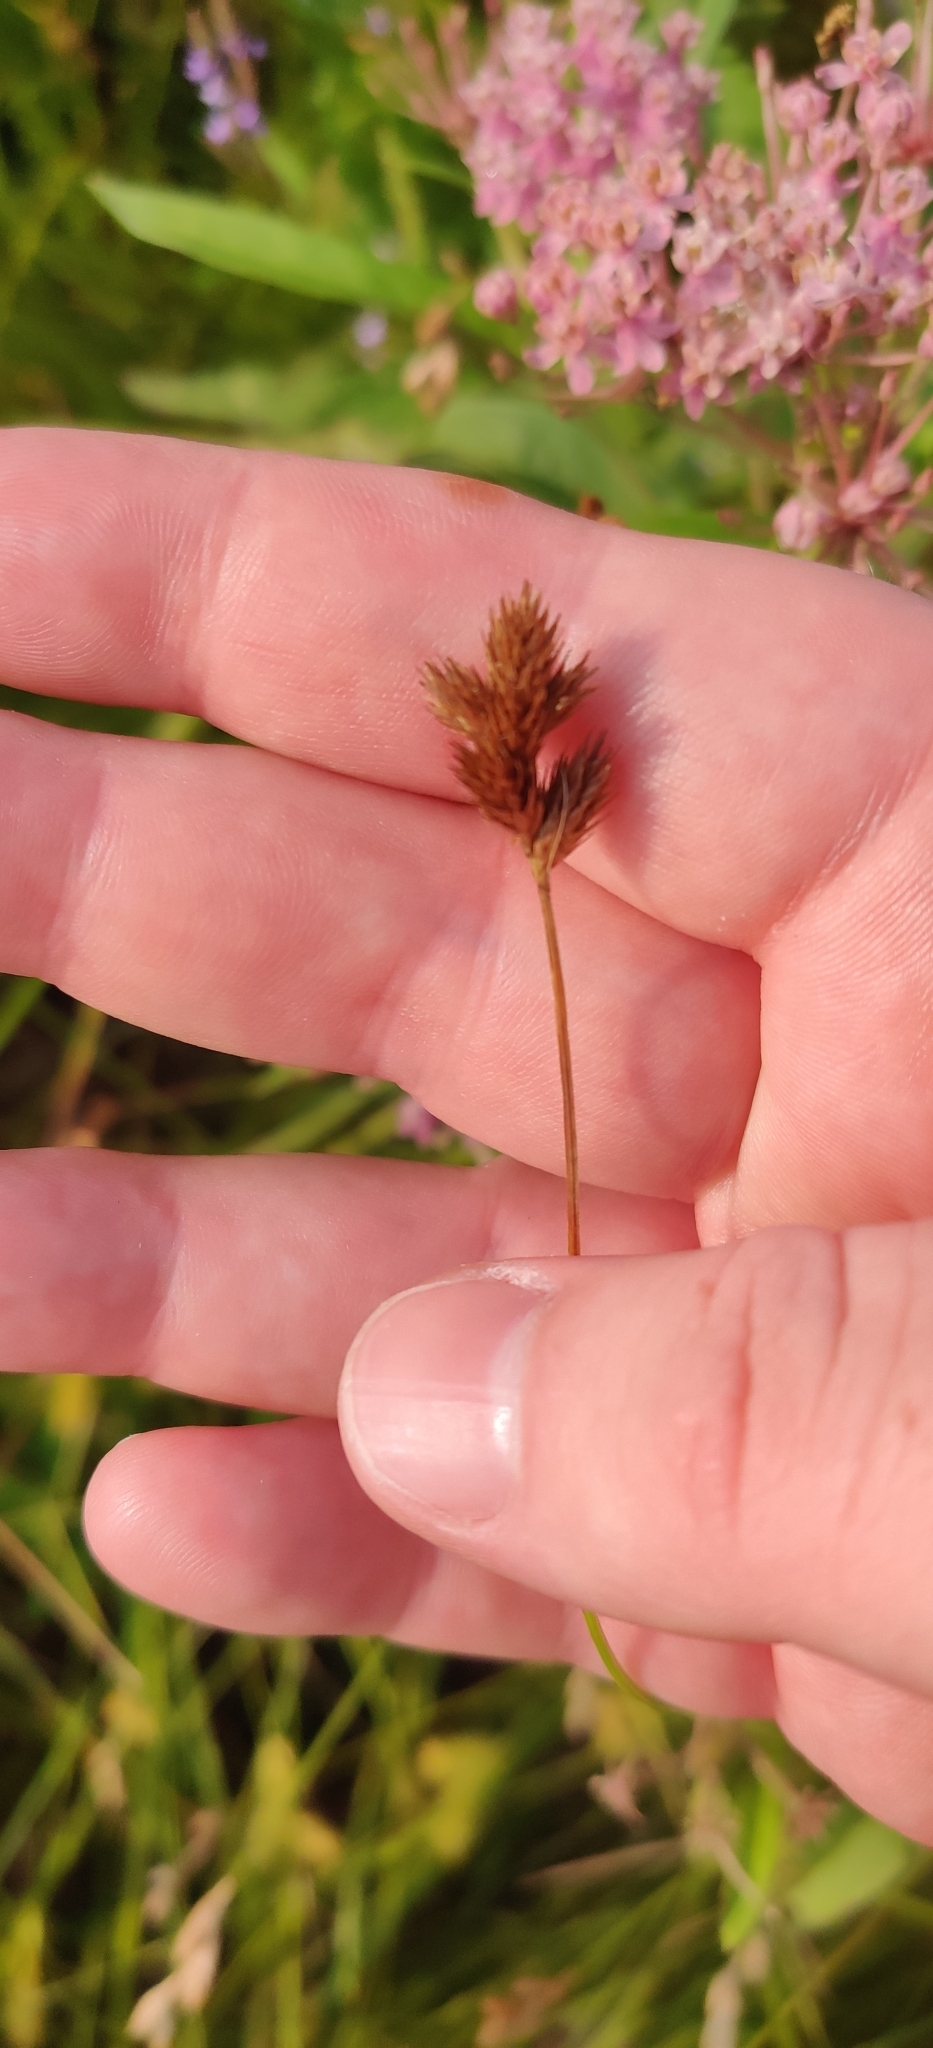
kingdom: Plantae
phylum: Tracheophyta
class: Liliopsida
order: Poales
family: Cyperaceae
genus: Carex
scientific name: Carex scoparia
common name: Broom sedge
